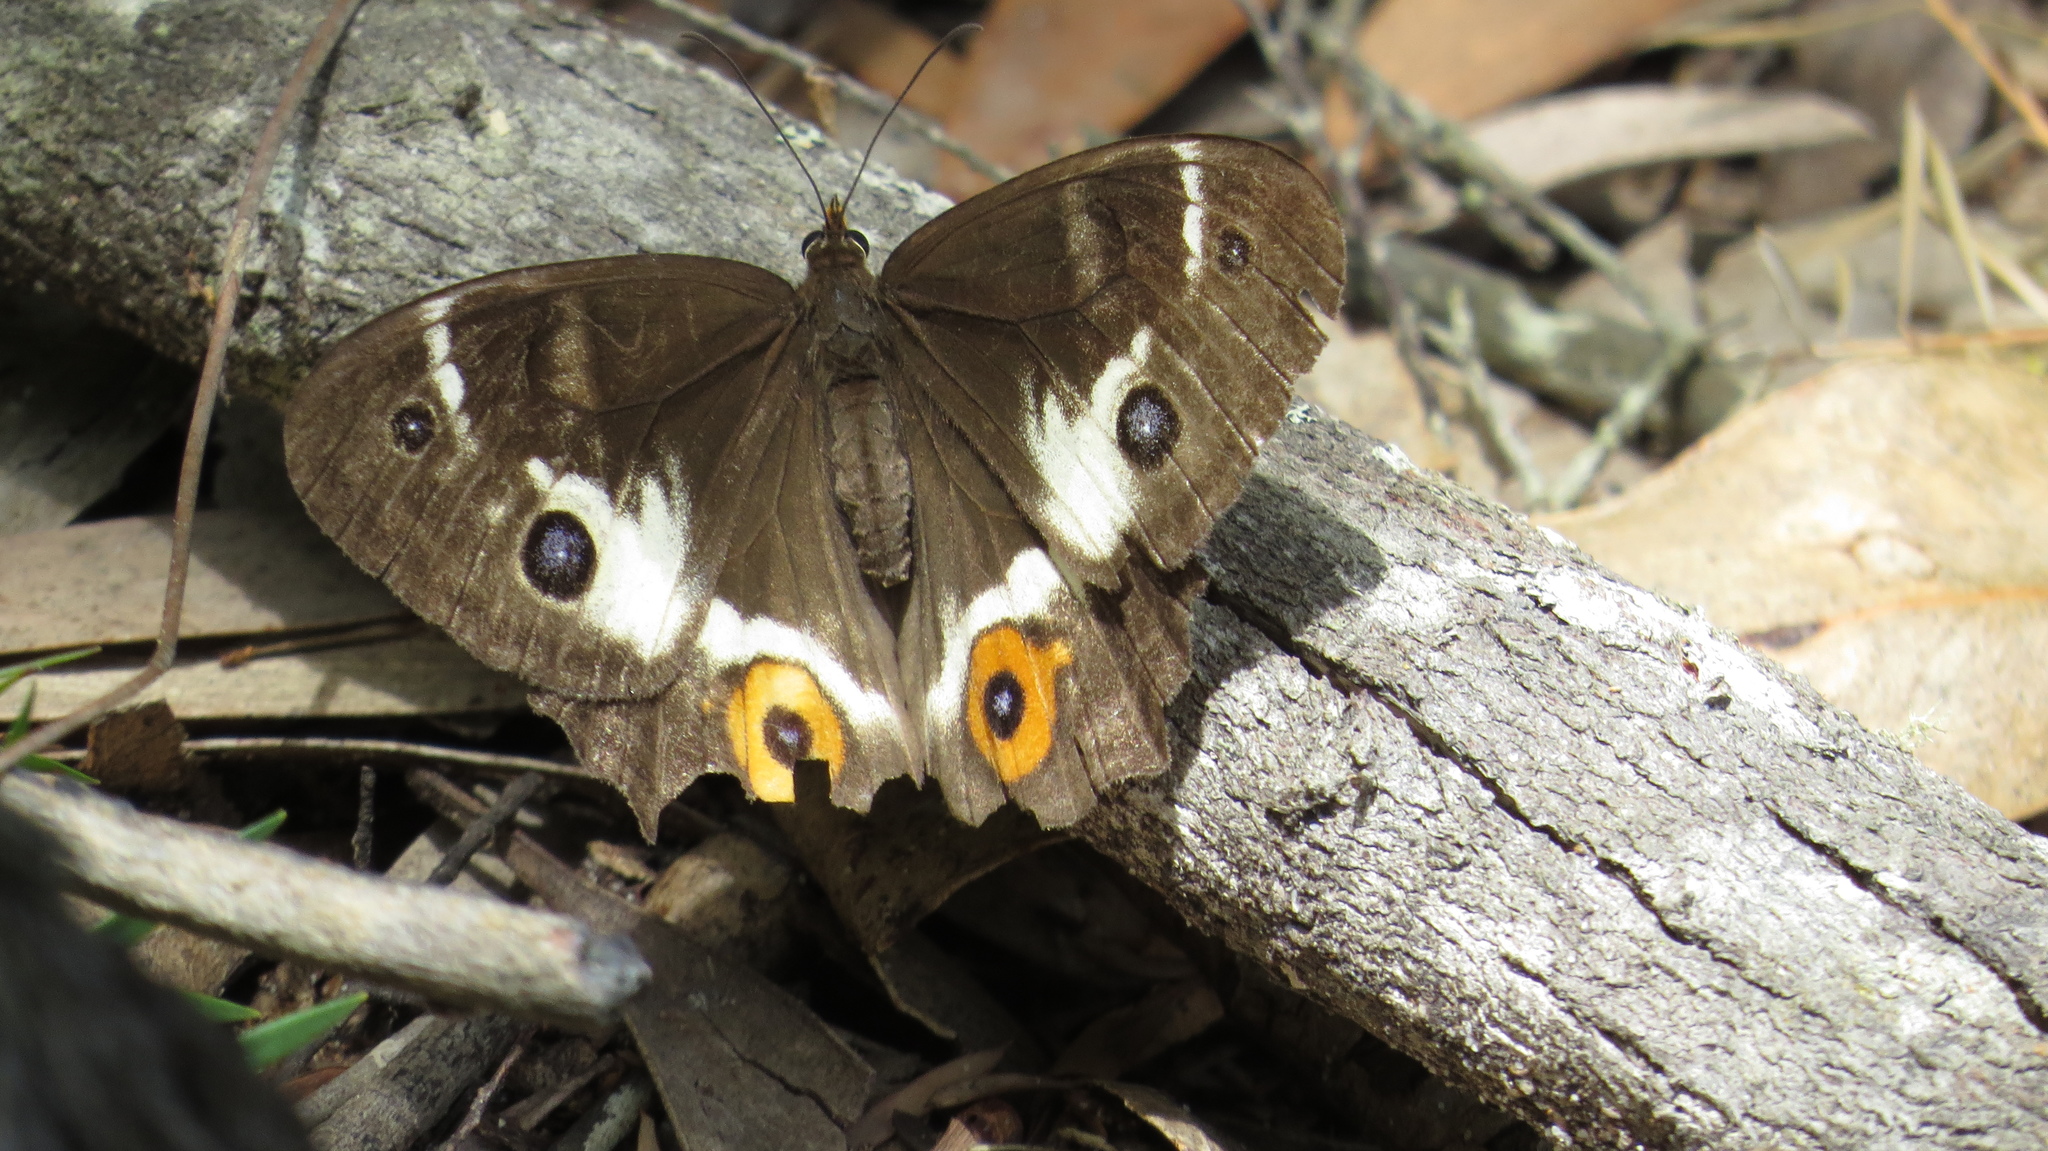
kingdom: Animalia
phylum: Arthropoda
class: Insecta
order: Lepidoptera
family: Nymphalidae
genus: Tisiphone
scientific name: Tisiphone abeona
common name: Swordgrass brown
